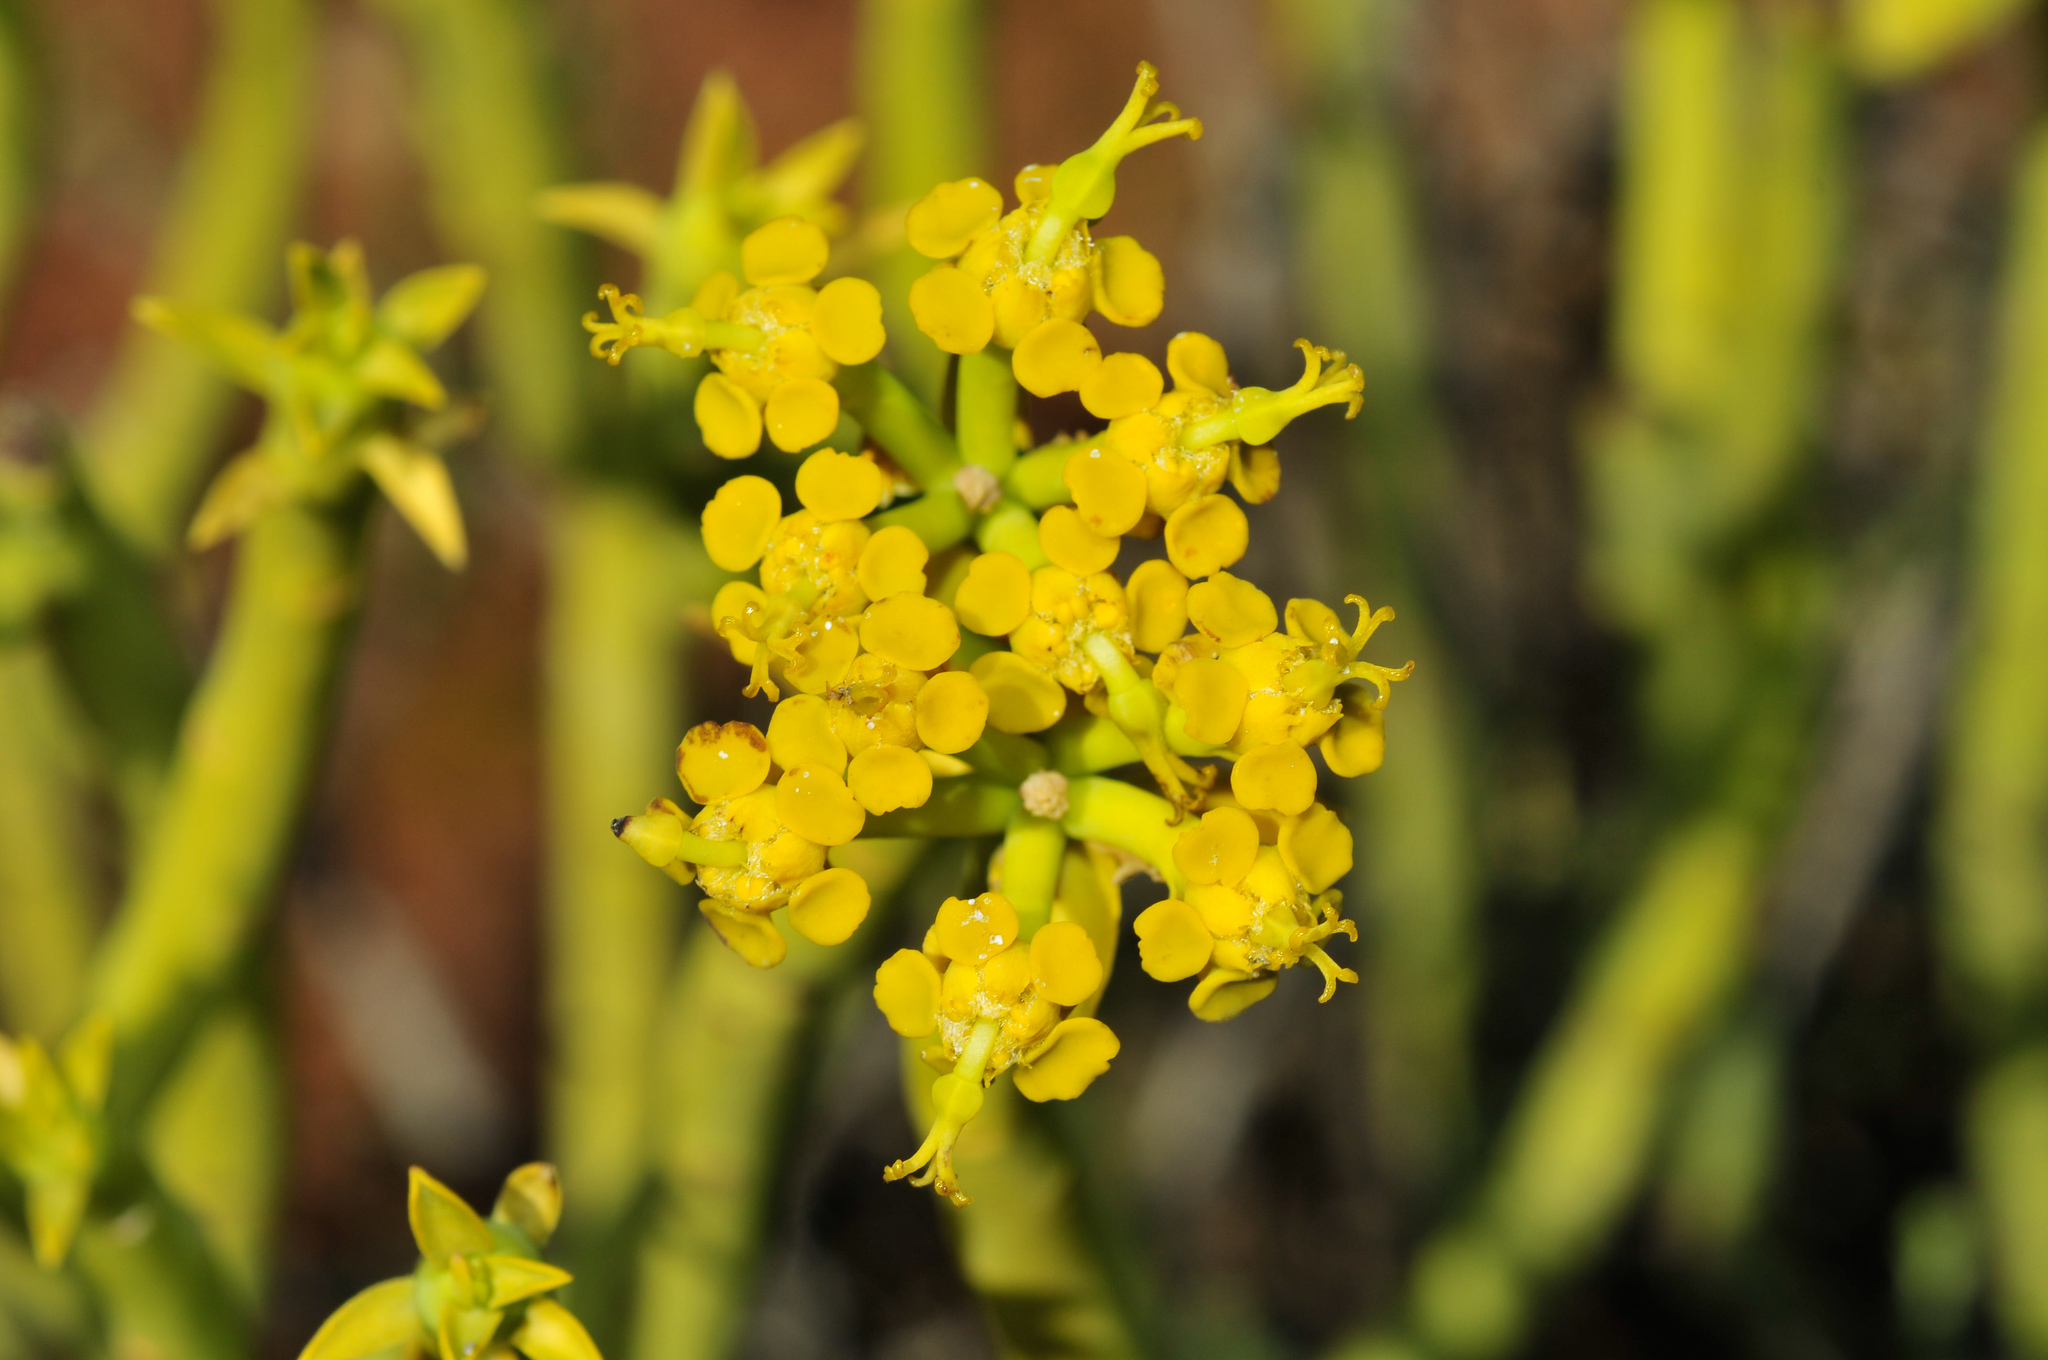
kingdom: Plantae
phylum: Tracheophyta
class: Magnoliopsida
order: Malpighiales
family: Euphorbiaceae
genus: Euphorbia
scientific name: Euphorbia mauritanica
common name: Jackal's-food
